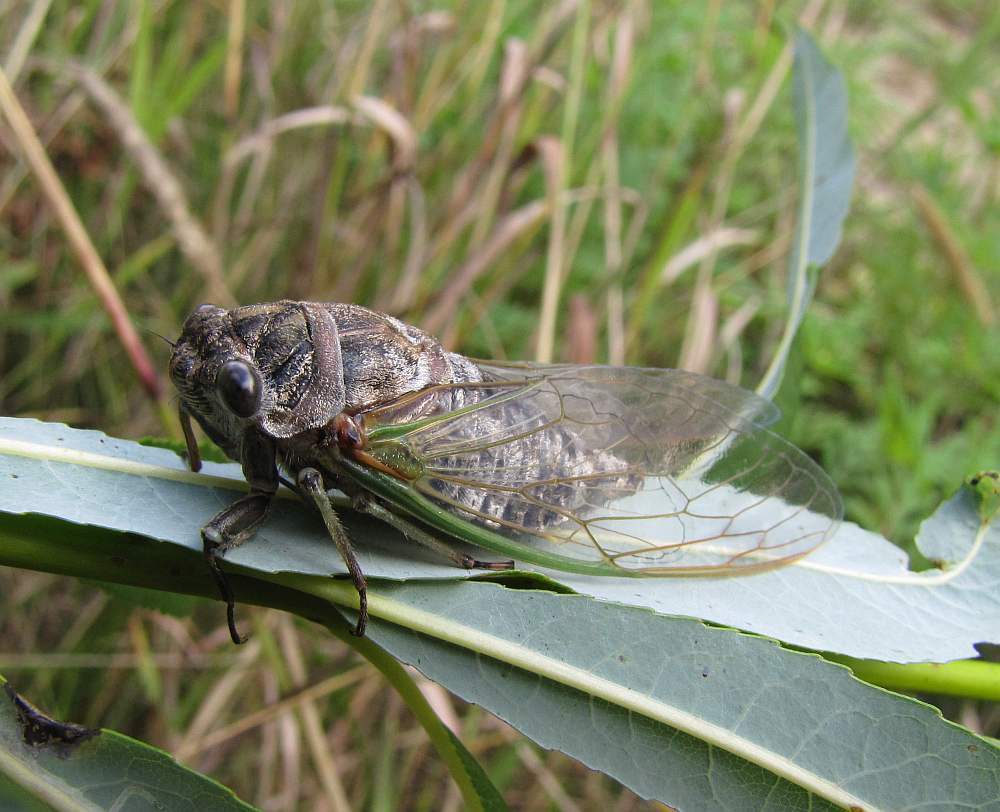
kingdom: Animalia
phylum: Arthropoda
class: Insecta
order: Hemiptera
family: Cicadidae
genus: Neotibicen
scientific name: Neotibicen canicularis
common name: God-day cicada
